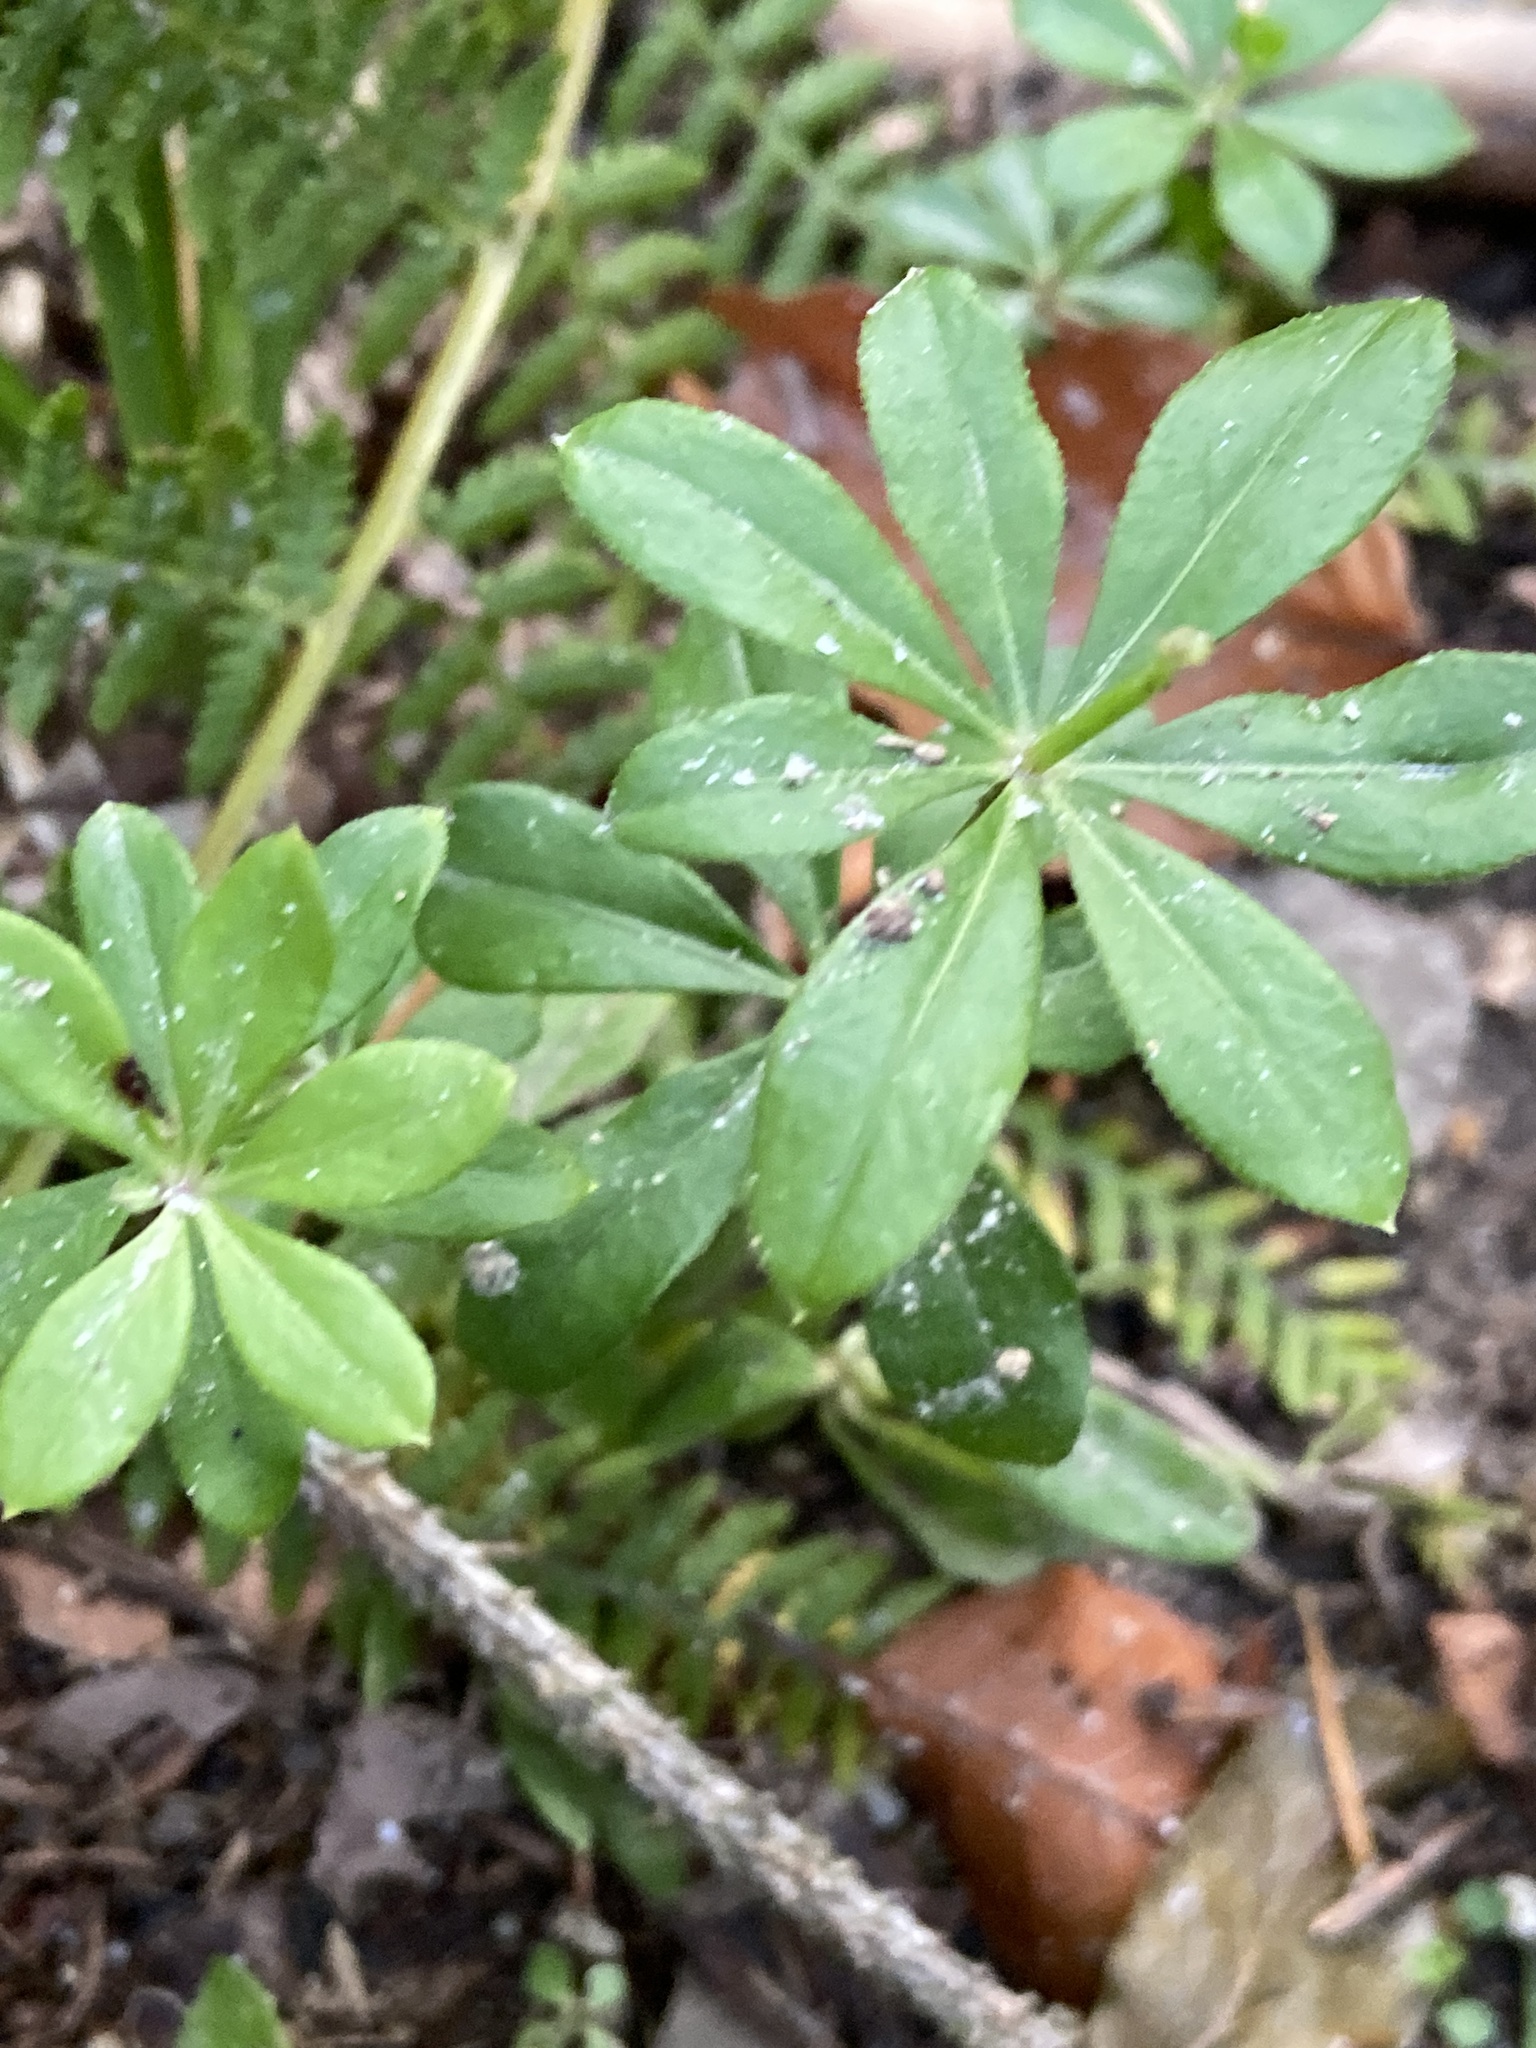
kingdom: Plantae
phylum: Tracheophyta
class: Magnoliopsida
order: Gentianales
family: Rubiaceae
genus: Galium
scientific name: Galium odoratum
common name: Sweet woodruff
